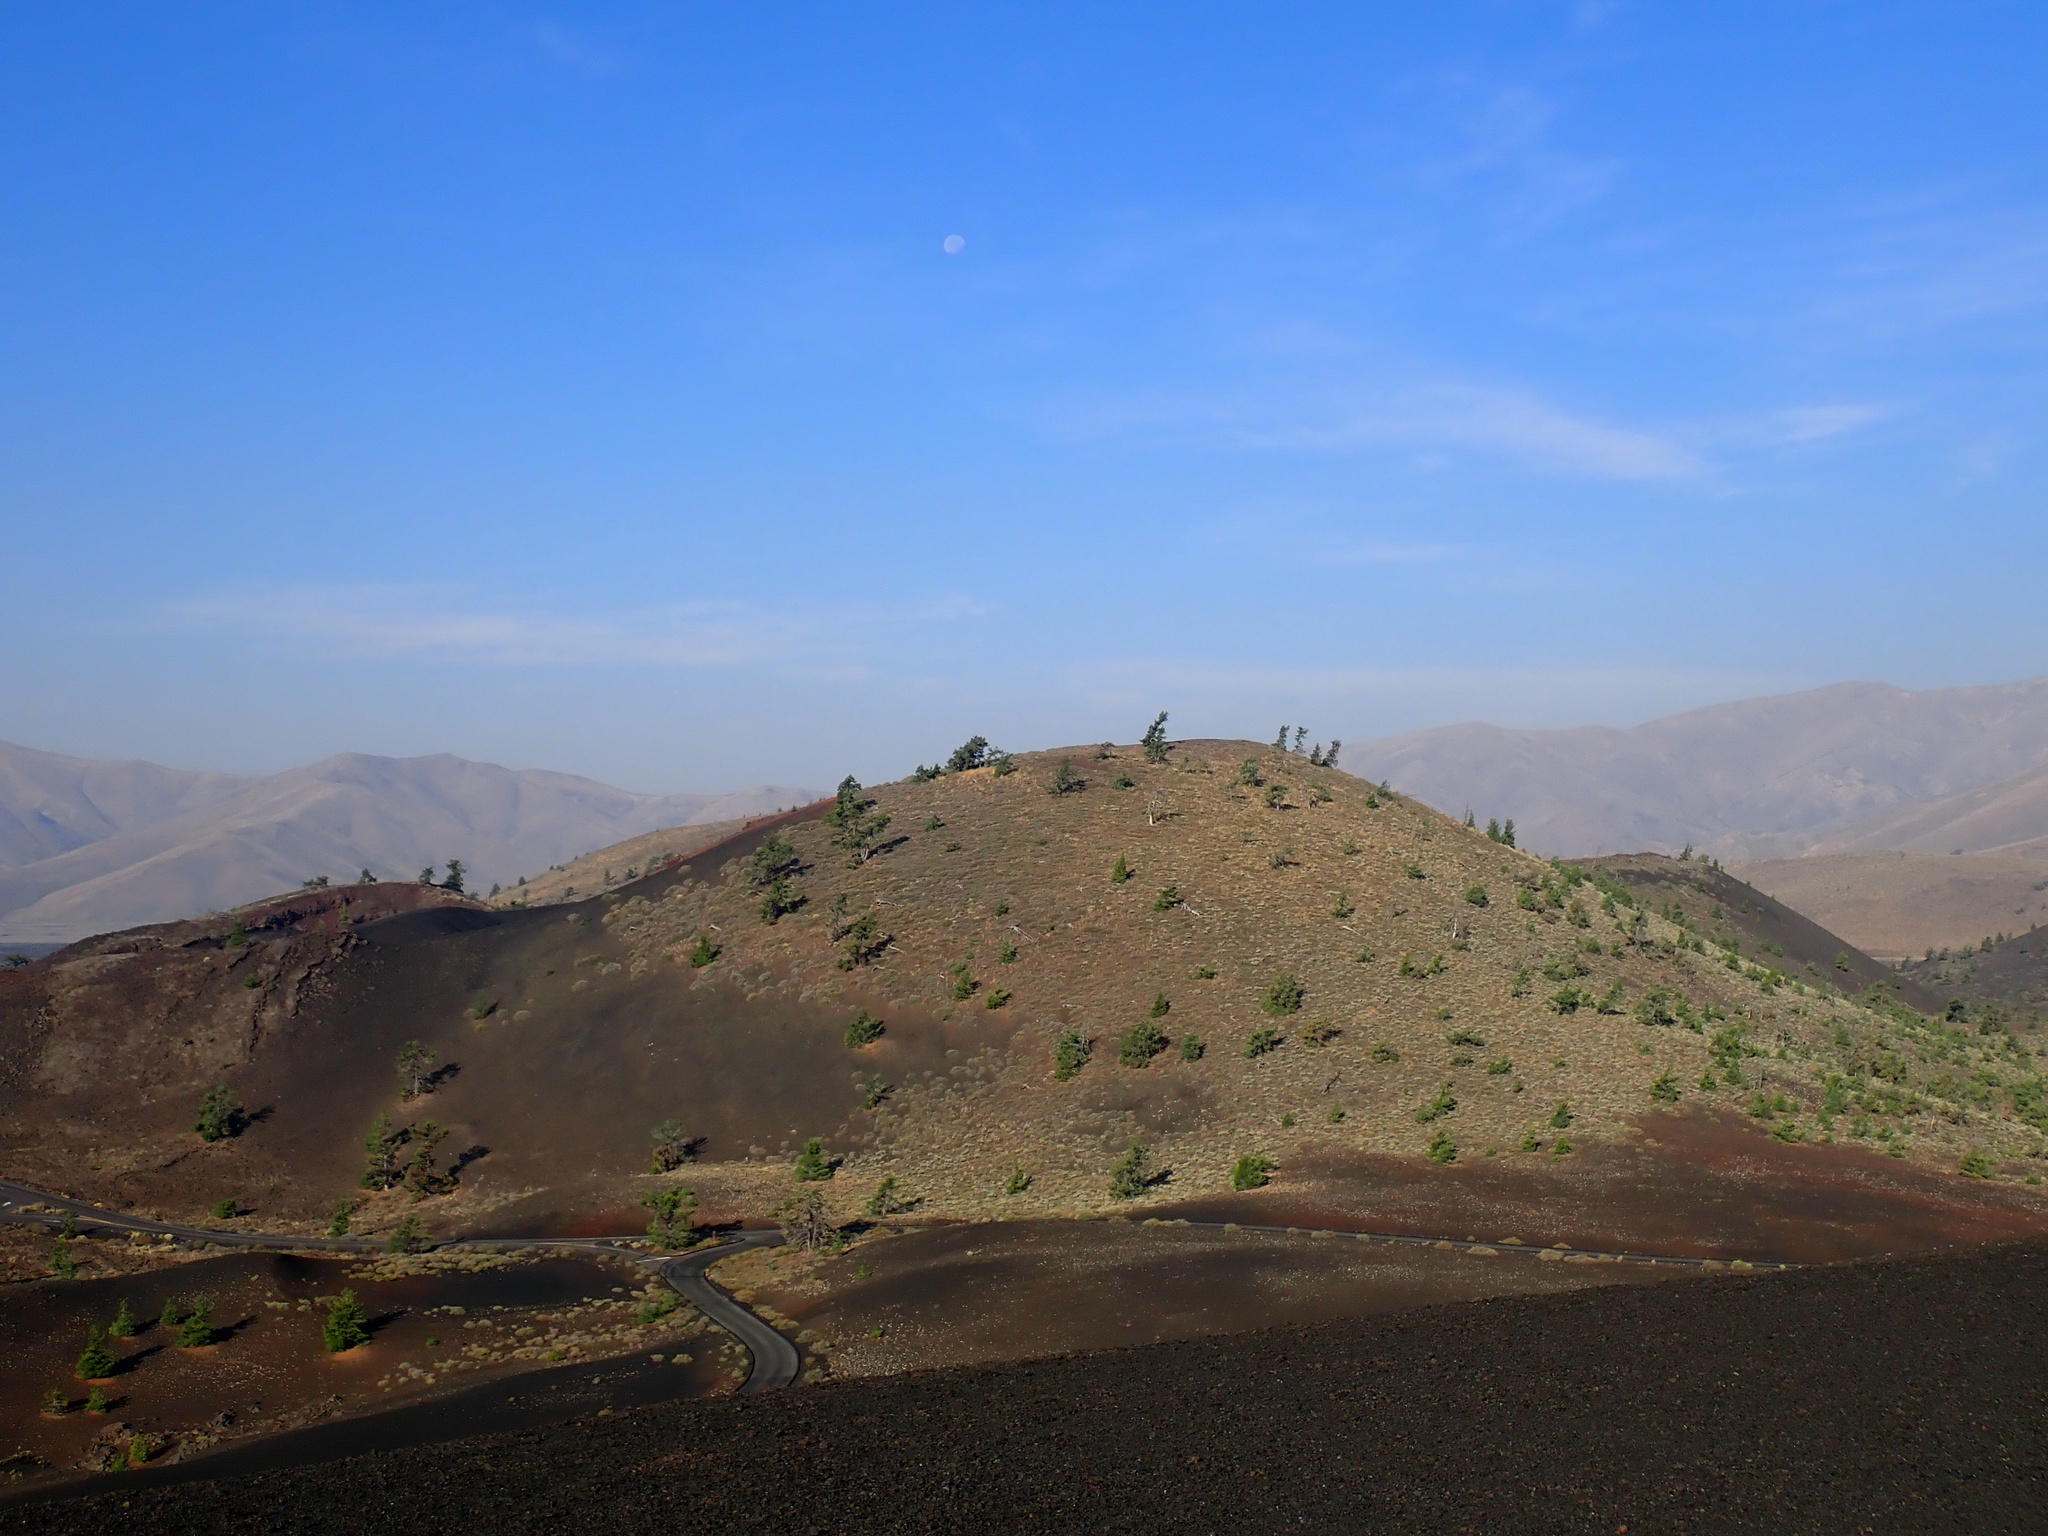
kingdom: Plantae
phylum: Tracheophyta
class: Pinopsida
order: Pinales
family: Pinaceae
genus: Pinus
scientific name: Pinus flexilis
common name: Limber pine
